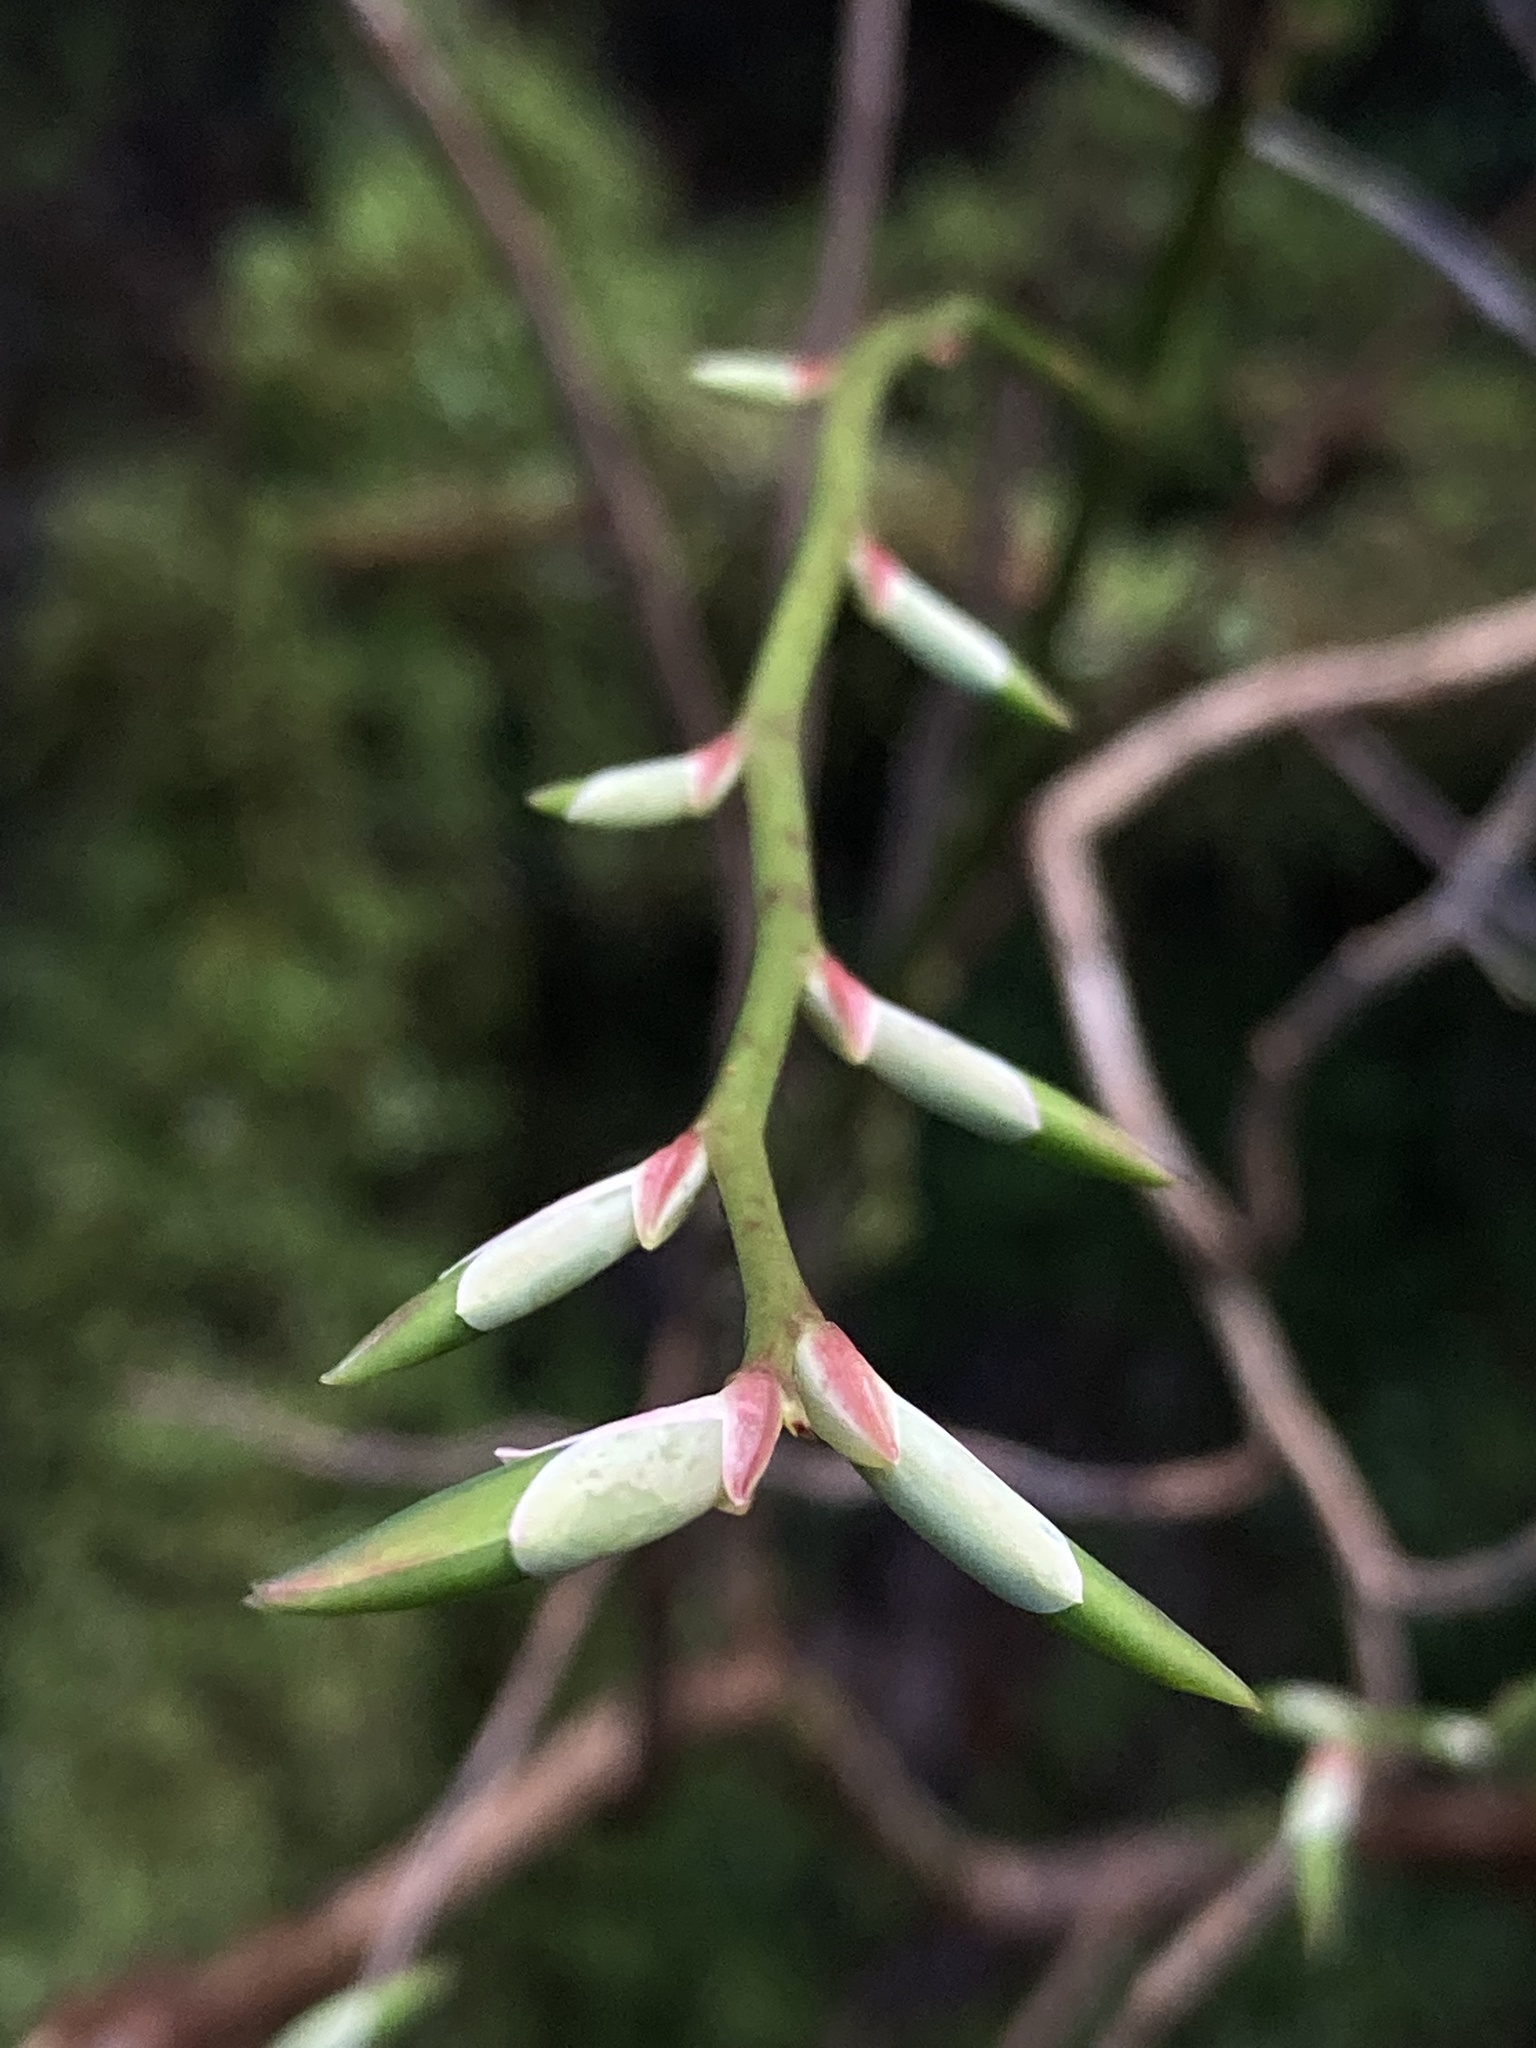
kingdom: Plantae
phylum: Tracheophyta
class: Magnoliopsida
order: Ericales
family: Ericaceae
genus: Vaccinium
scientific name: Vaccinium parvifolium
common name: Red-huckleberry
